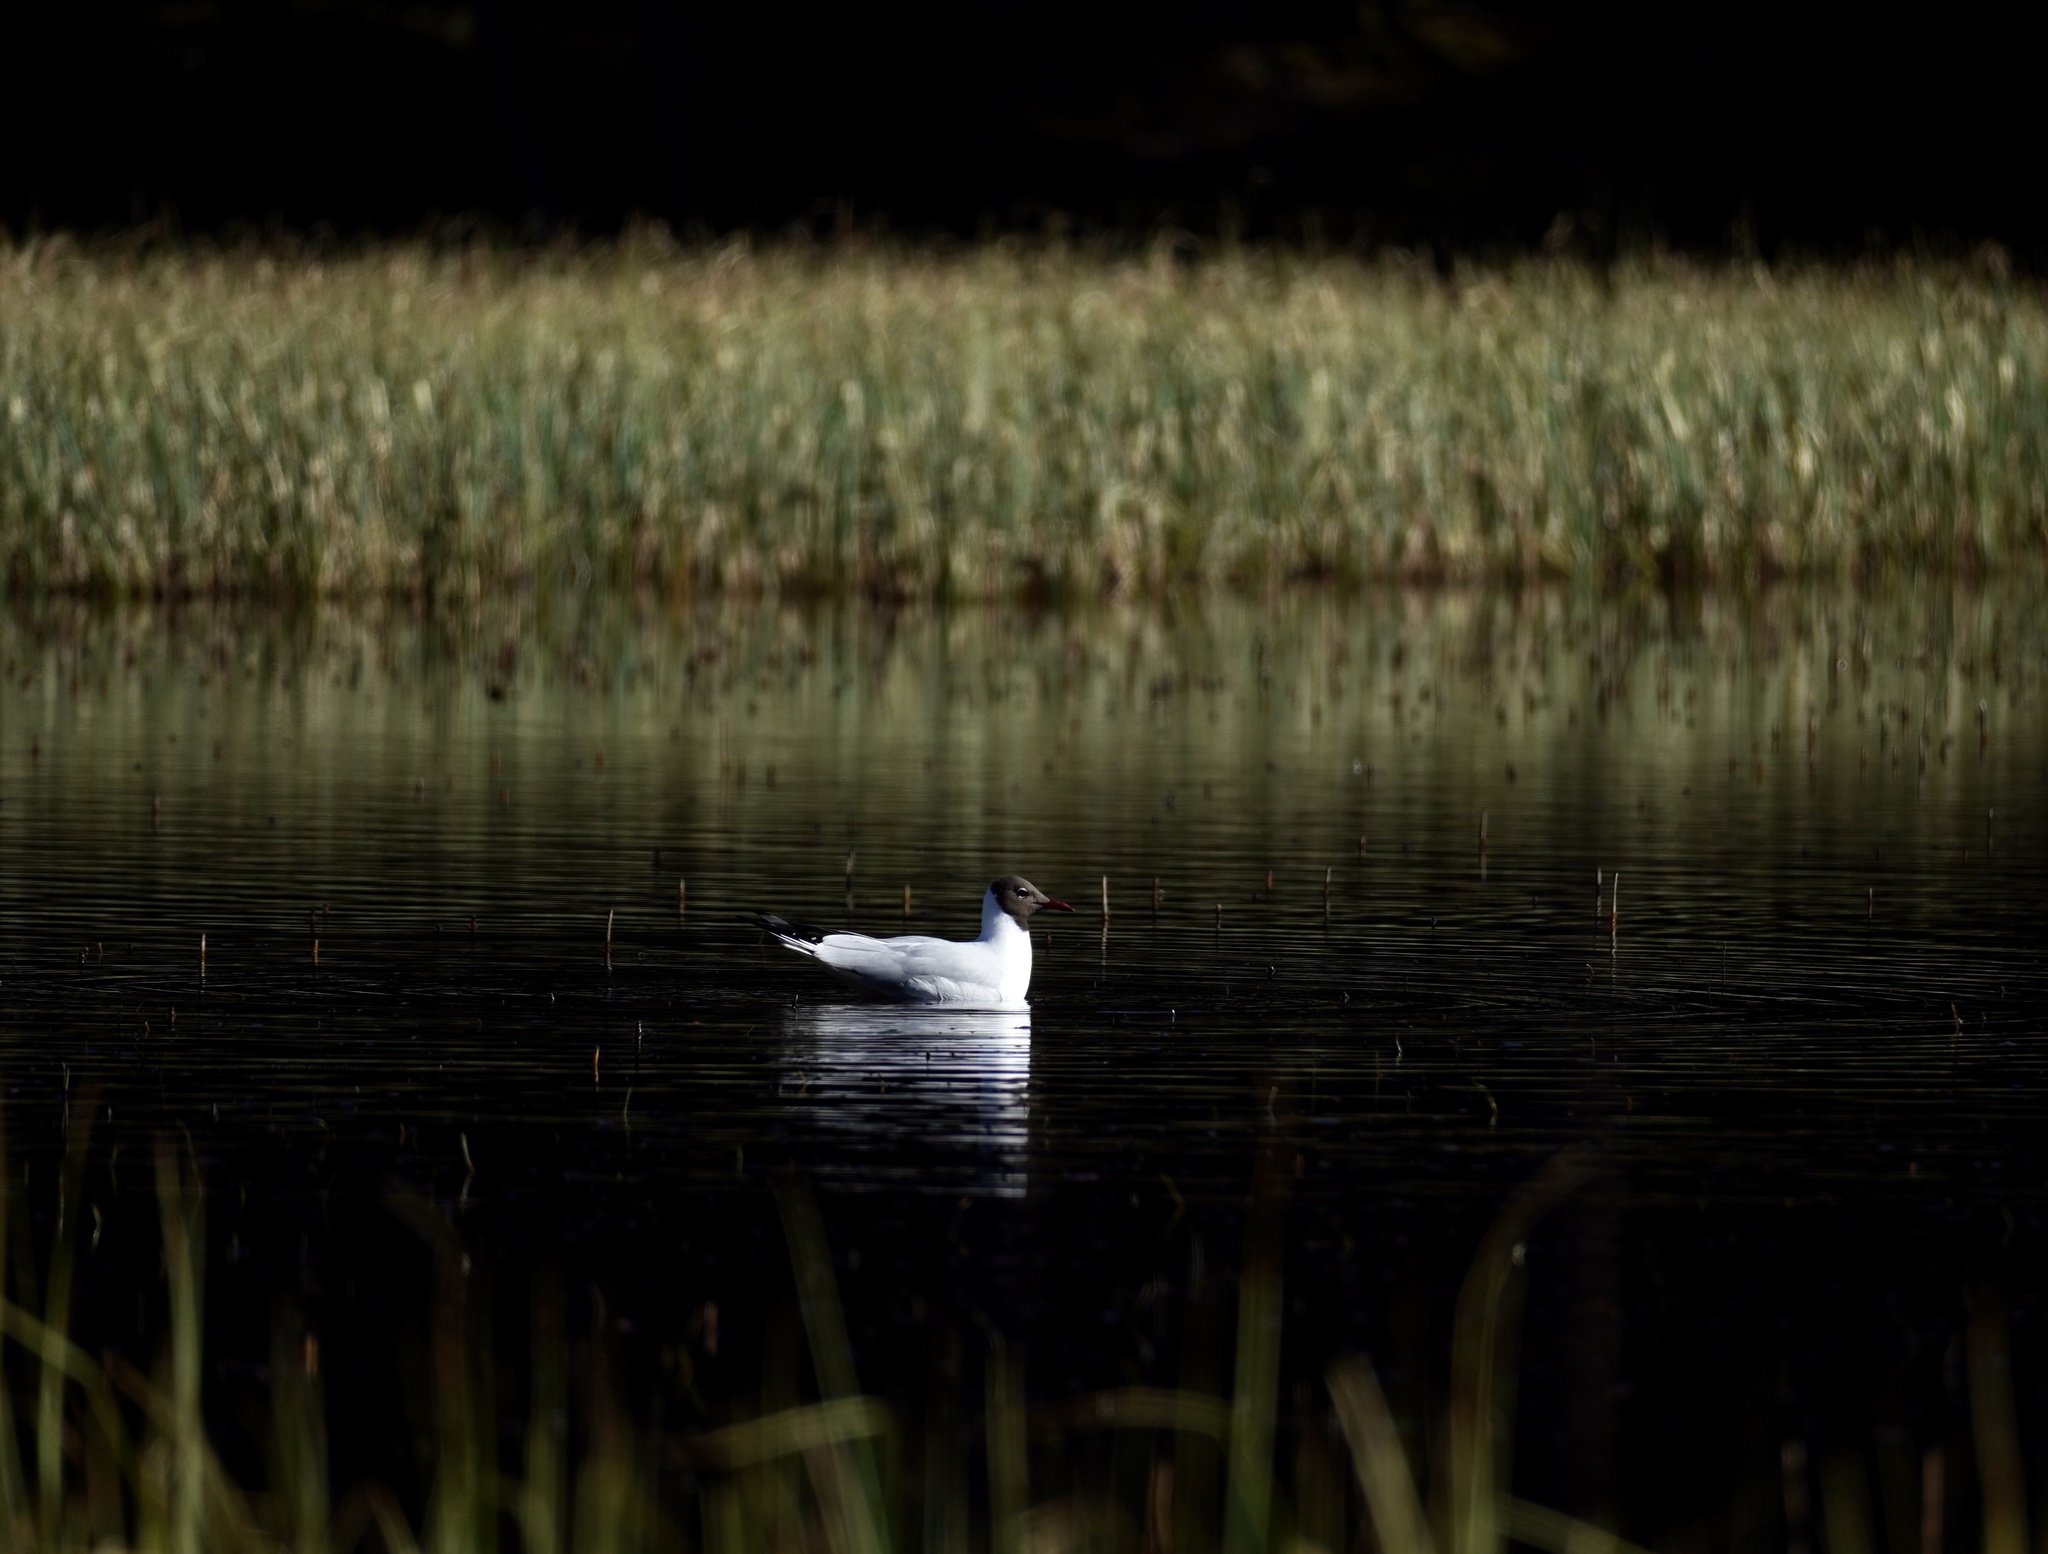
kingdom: Animalia
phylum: Chordata
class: Aves
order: Charadriiformes
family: Laridae
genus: Chroicocephalus
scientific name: Chroicocephalus ridibundus
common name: Black-headed gull
